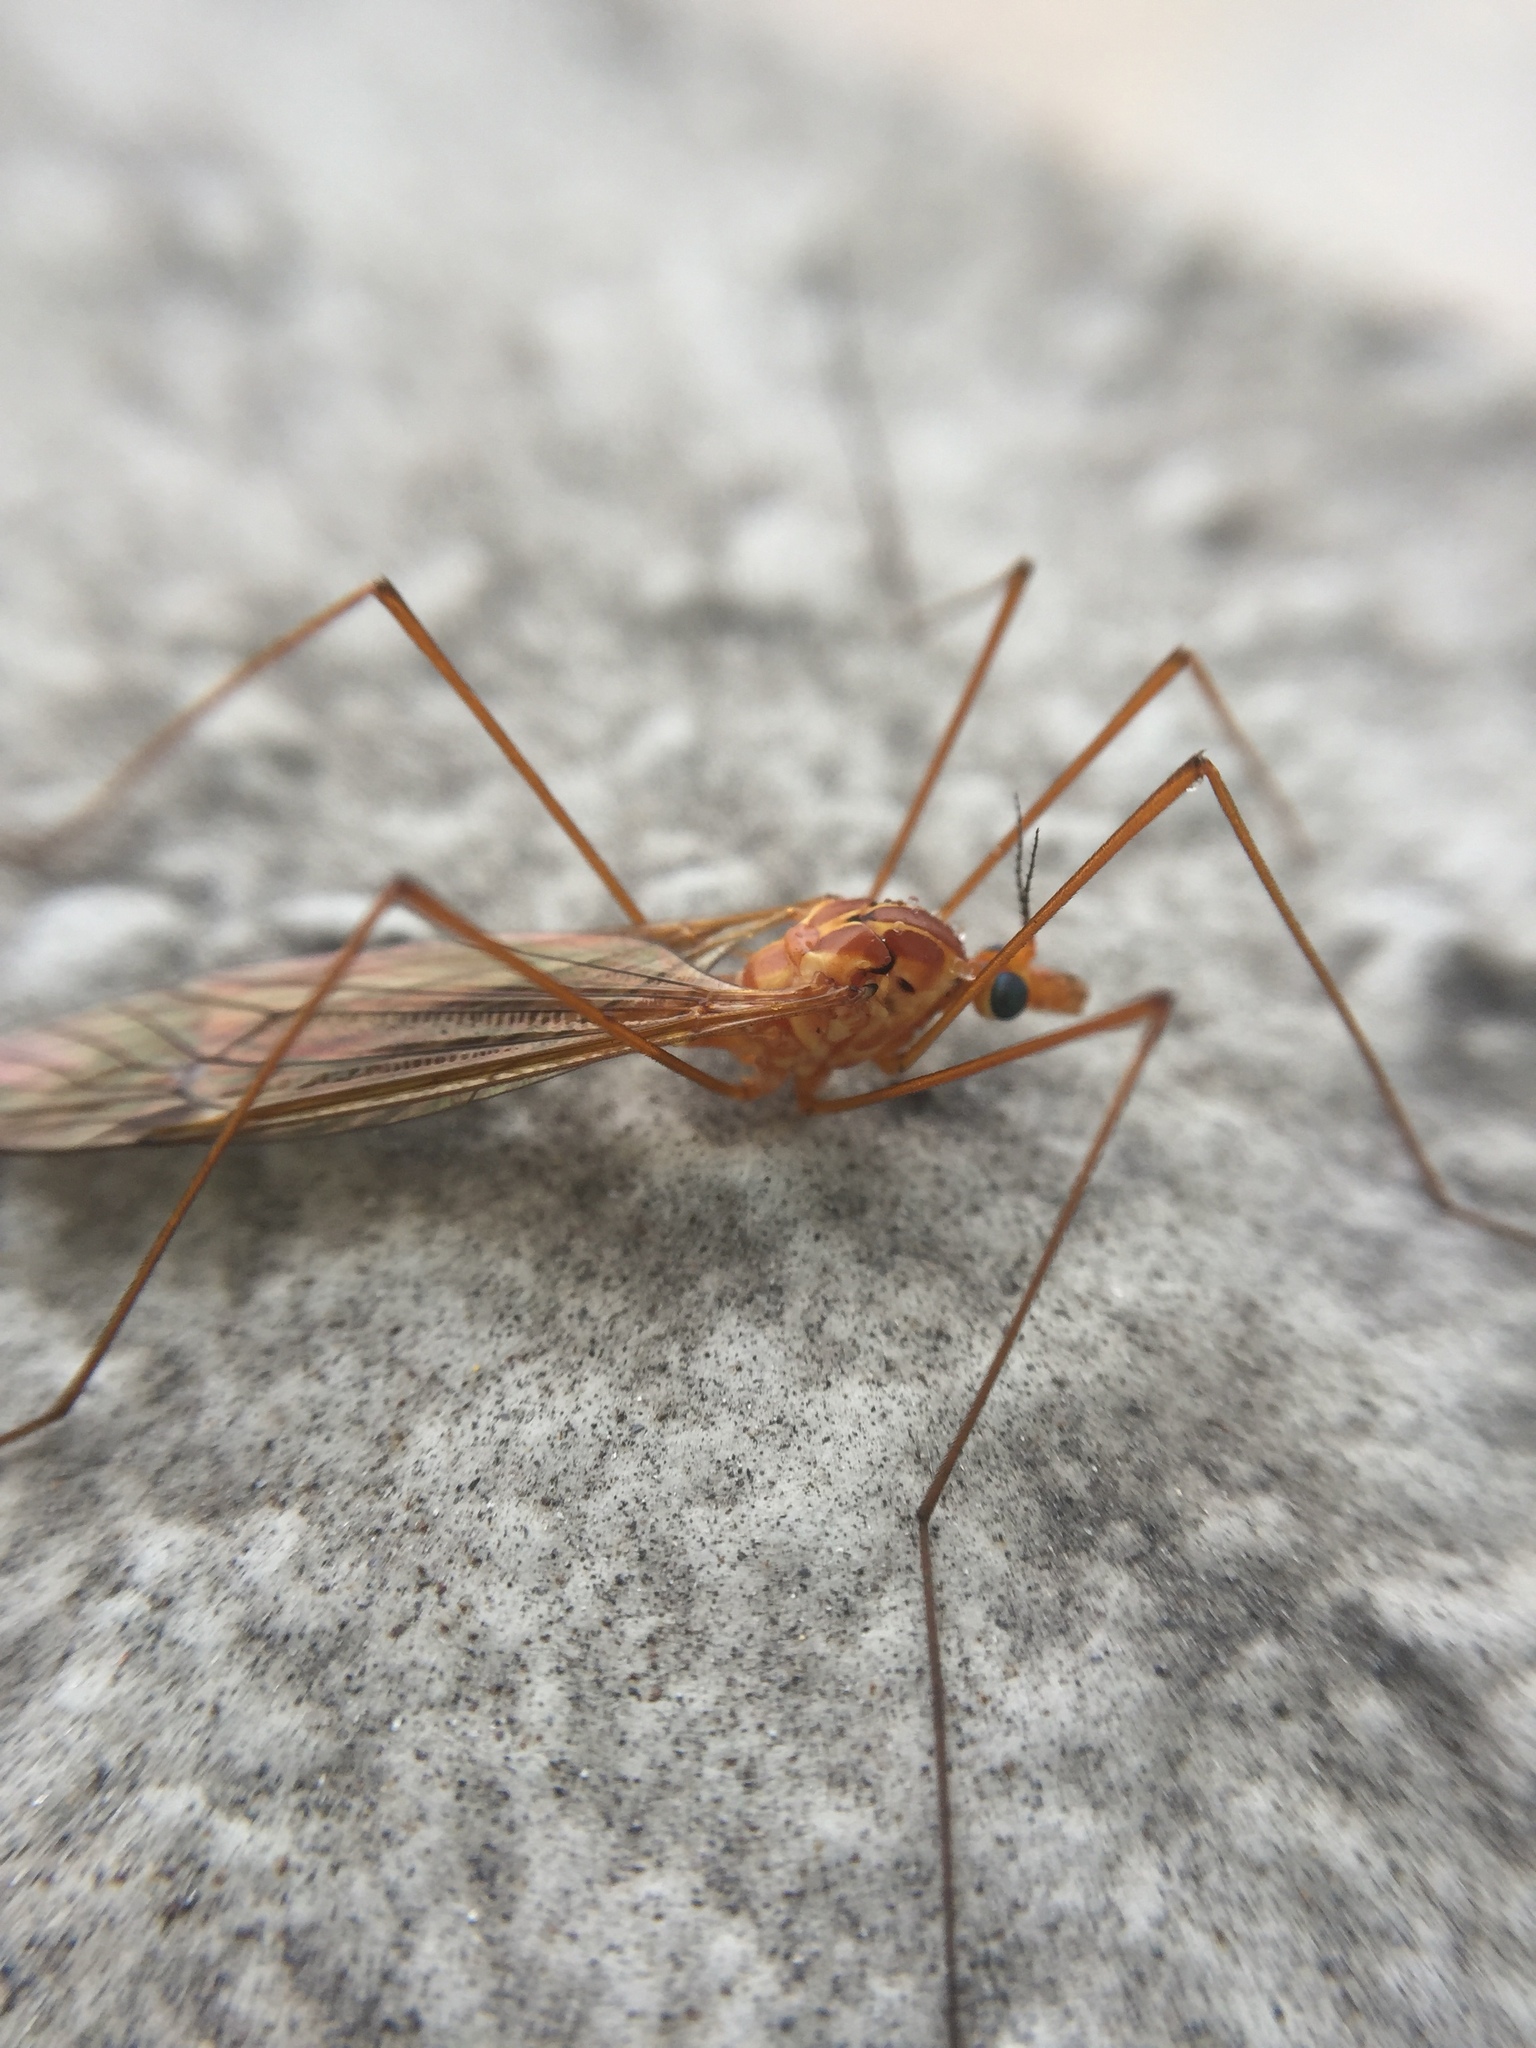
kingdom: Animalia
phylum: Arthropoda
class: Insecta
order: Diptera
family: Tipulidae
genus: Nephrotoma
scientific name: Nephrotoma
